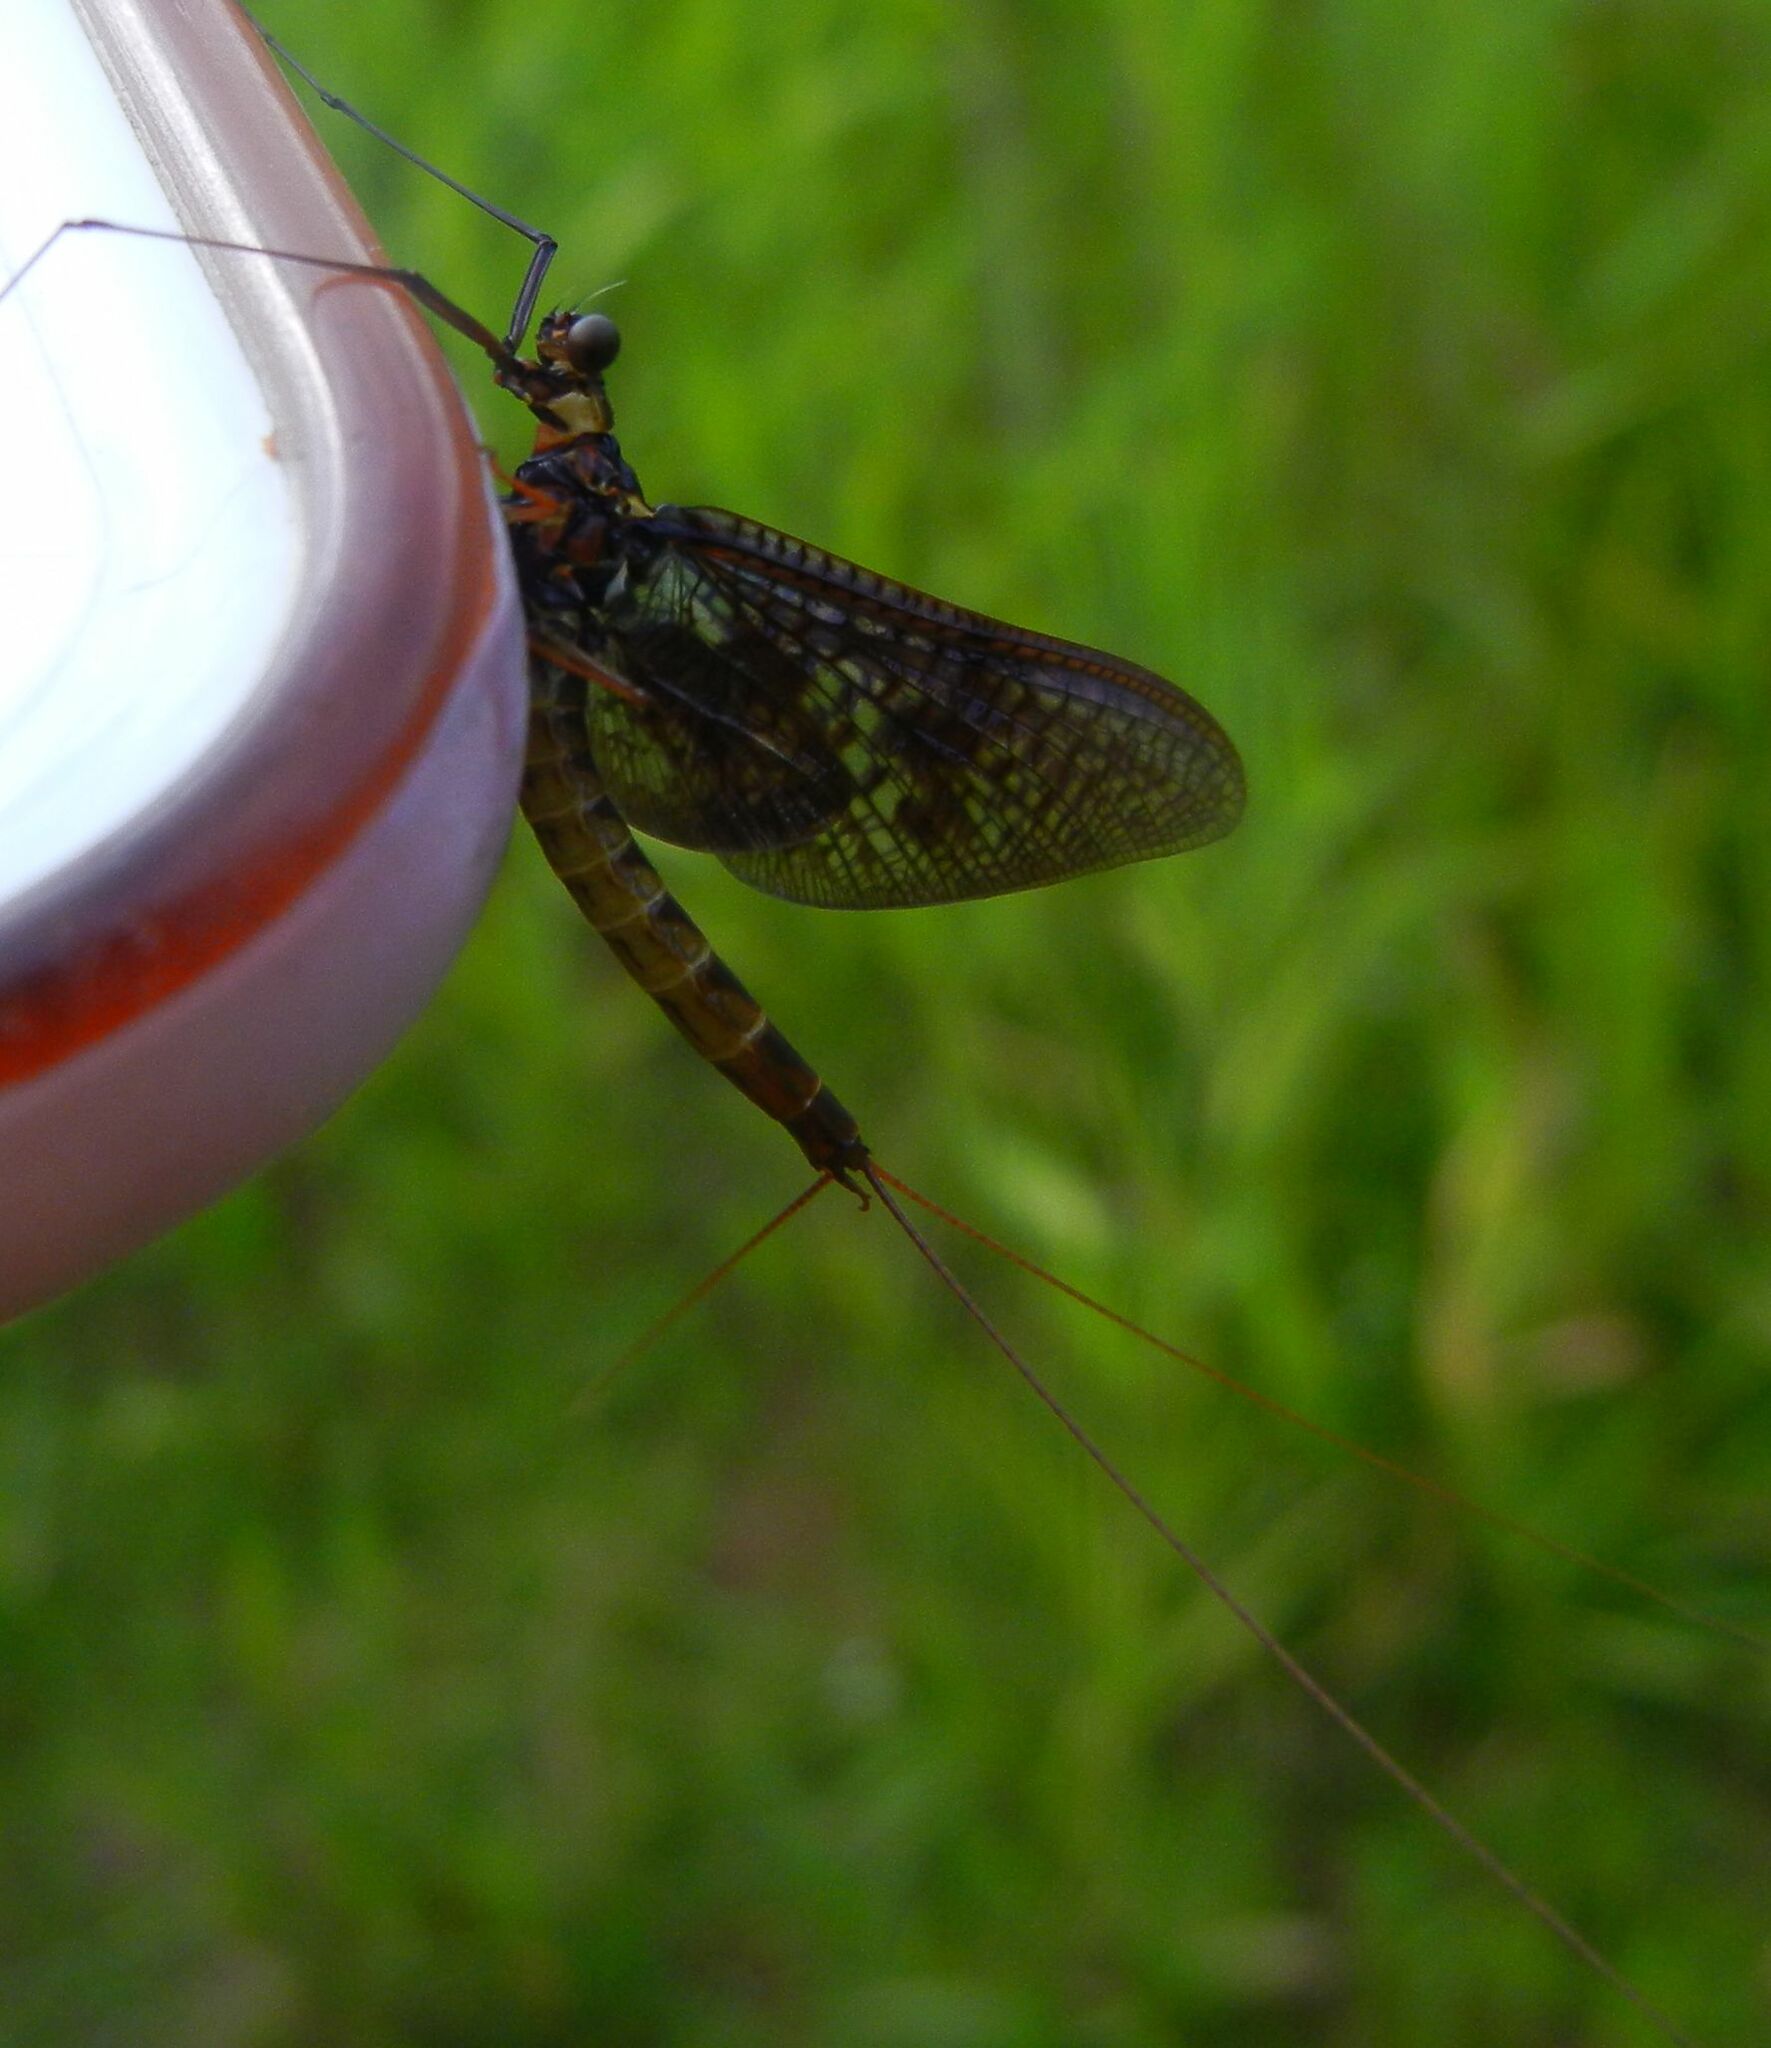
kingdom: Animalia
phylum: Arthropoda
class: Insecta
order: Ephemeroptera
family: Ephemeridae
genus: Ephemera
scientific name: Ephemera vulgata
